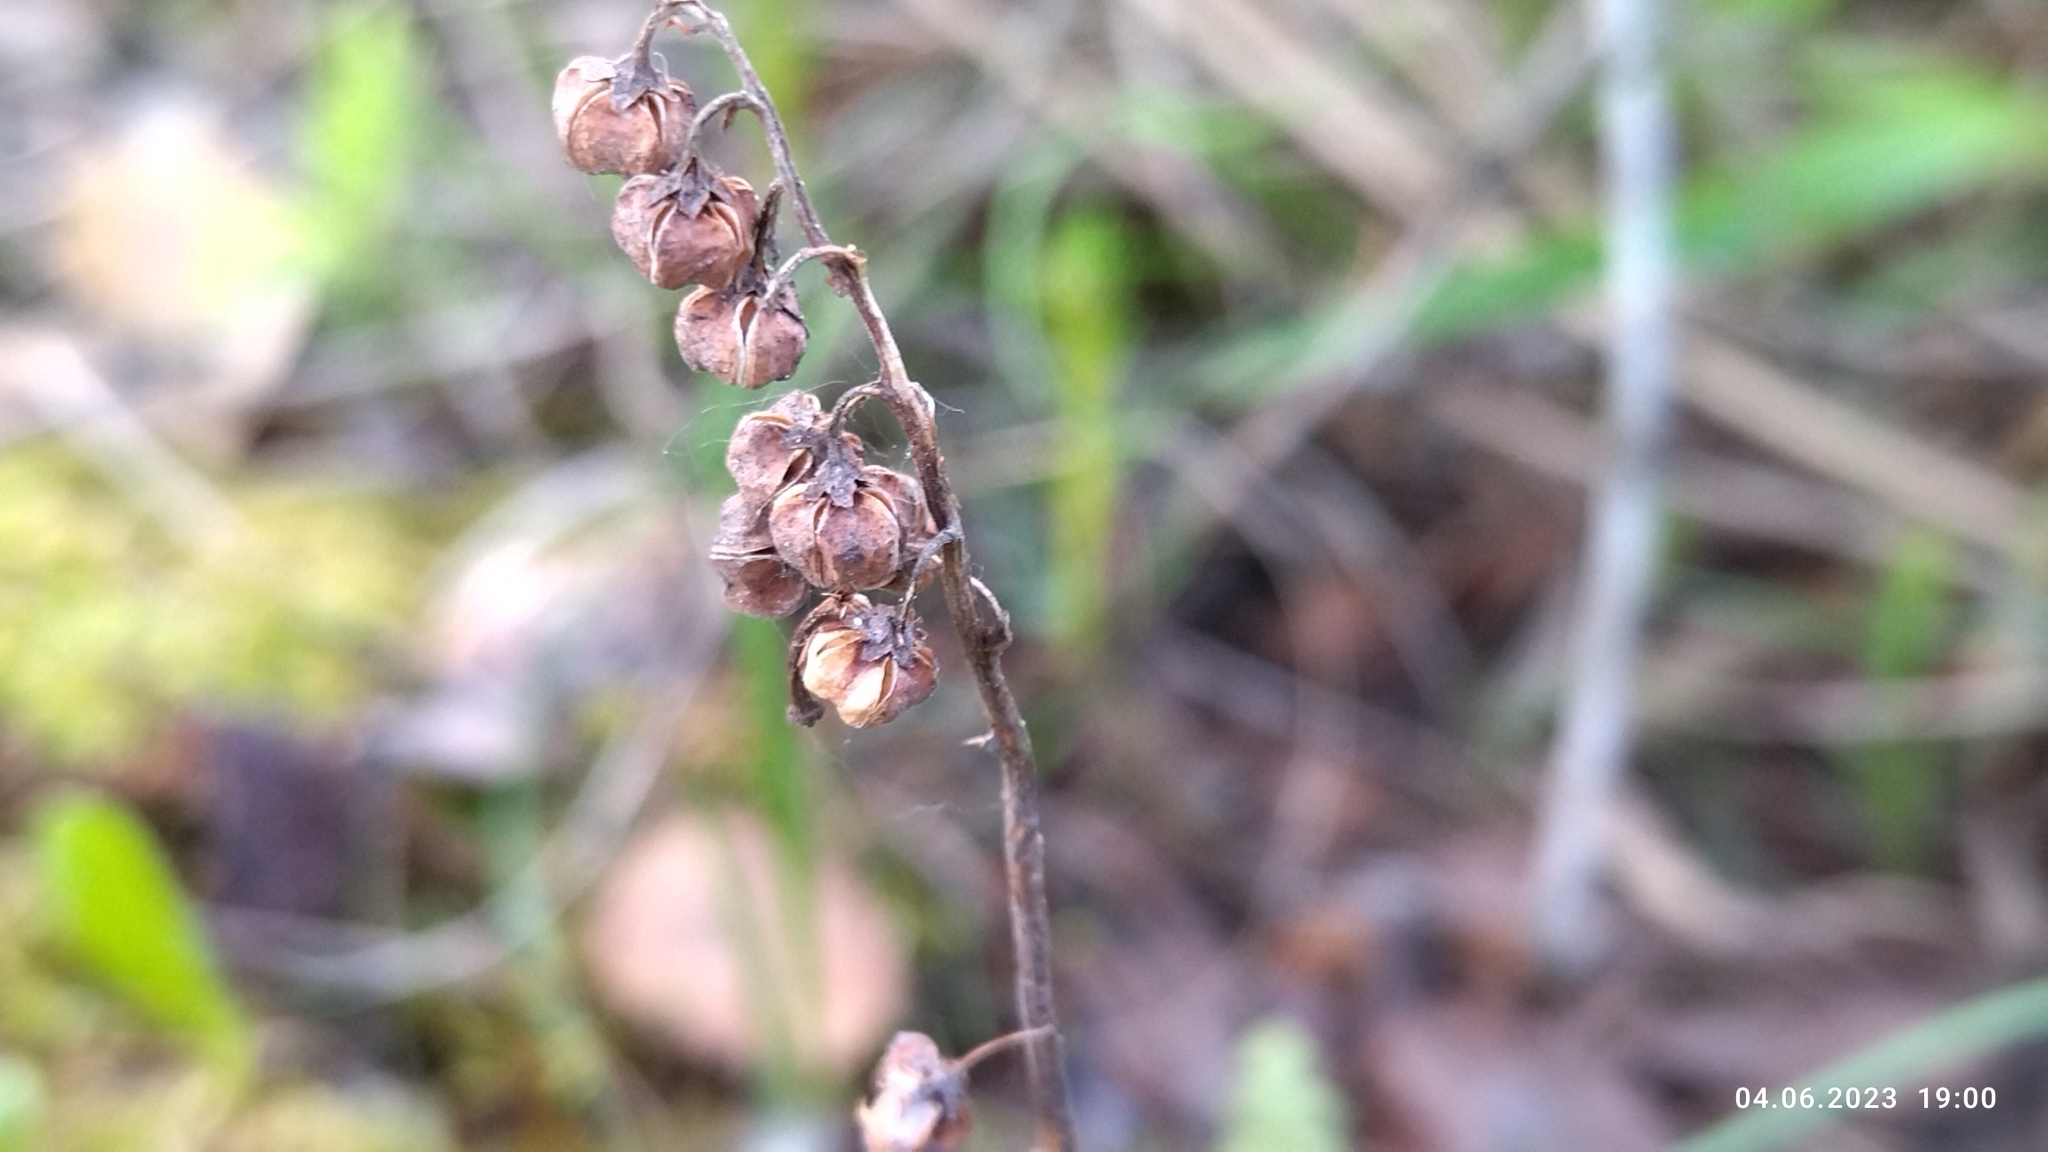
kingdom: Plantae
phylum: Tracheophyta
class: Magnoliopsida
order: Ericales
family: Ericaceae
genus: Orthilia
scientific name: Orthilia secunda
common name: One-sided orthilia
